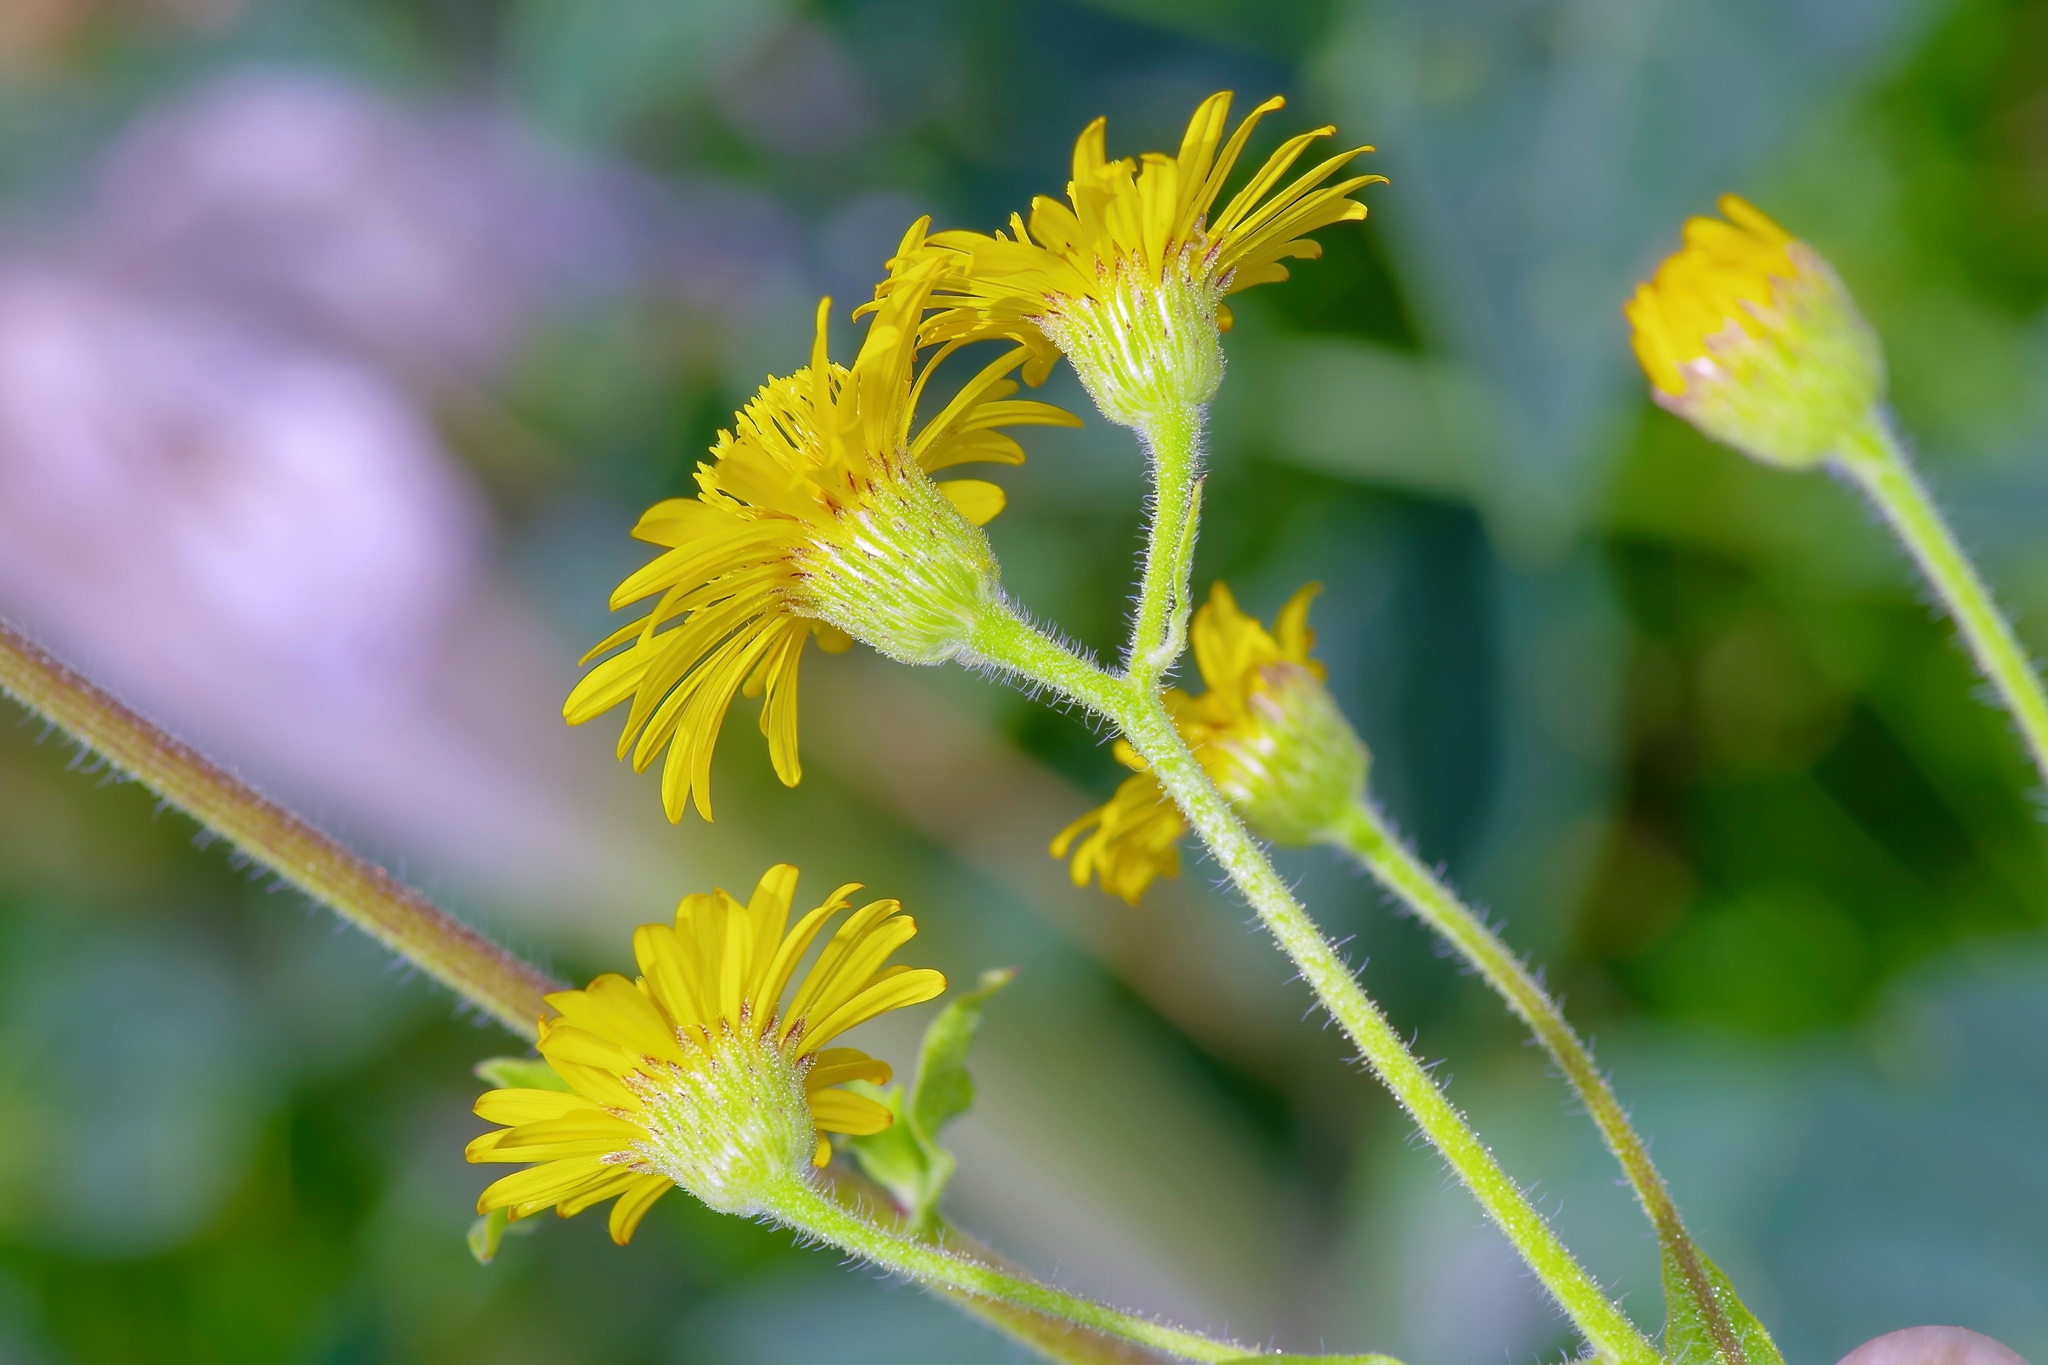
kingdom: Plantae
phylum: Tracheophyta
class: Magnoliopsida
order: Asterales
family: Asteraceae
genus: Heterotheca
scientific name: Heterotheca subaxillaris
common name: Camphorweed
